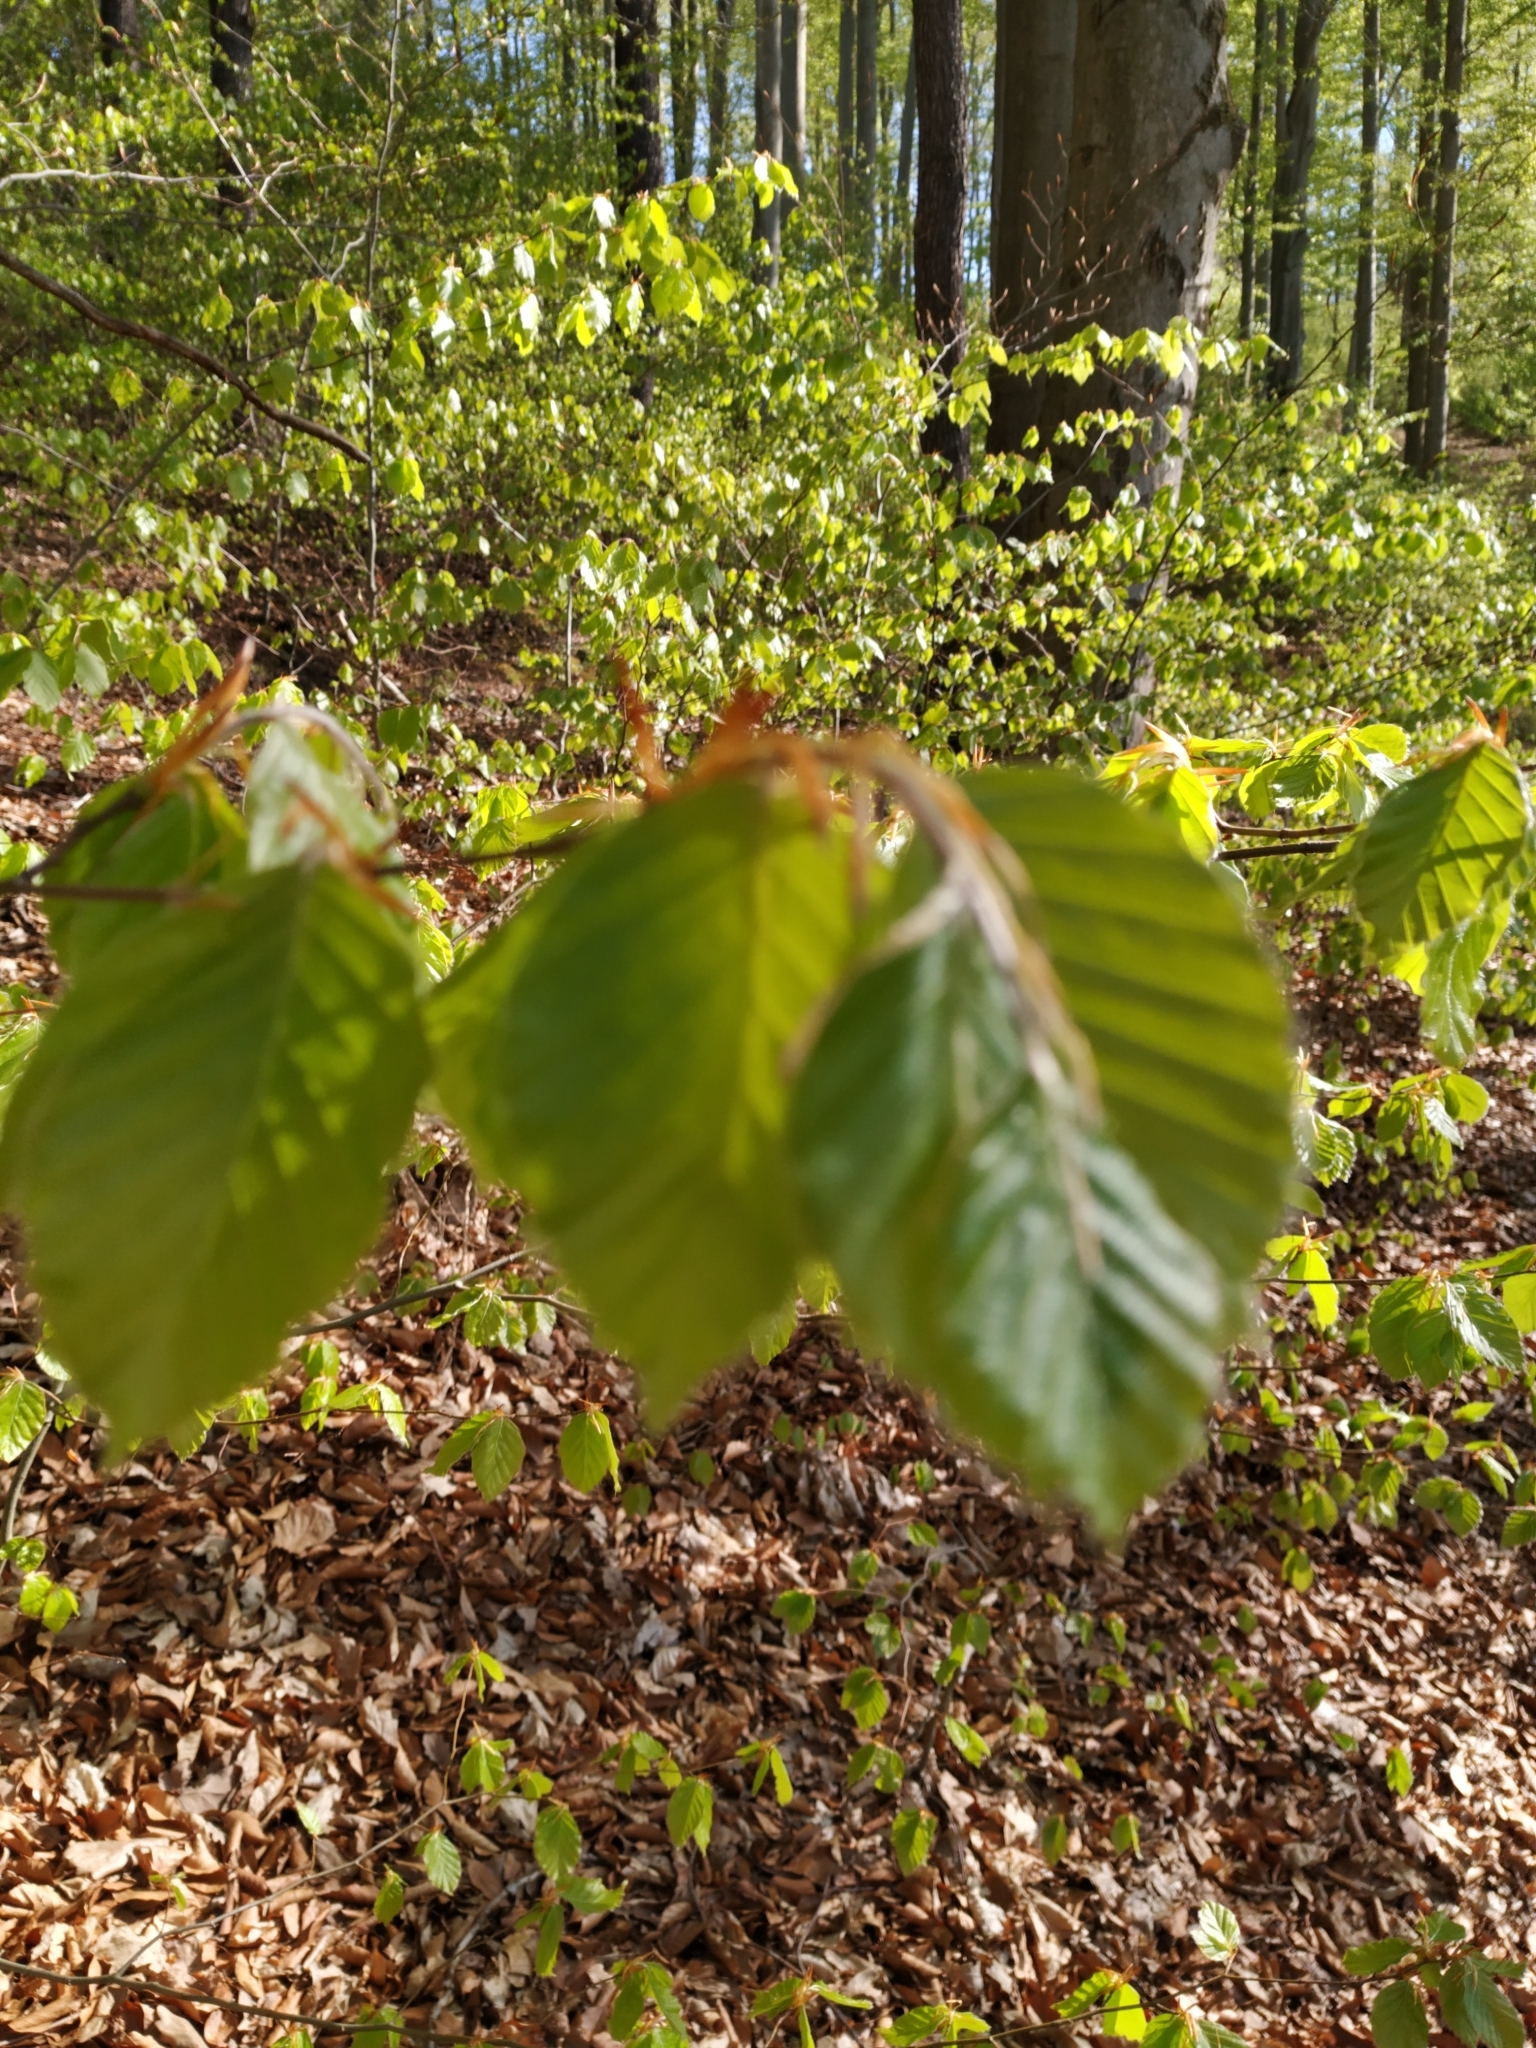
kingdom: Plantae
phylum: Tracheophyta
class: Magnoliopsida
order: Fagales
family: Fagaceae
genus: Fagus
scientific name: Fagus sylvatica
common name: Beech
